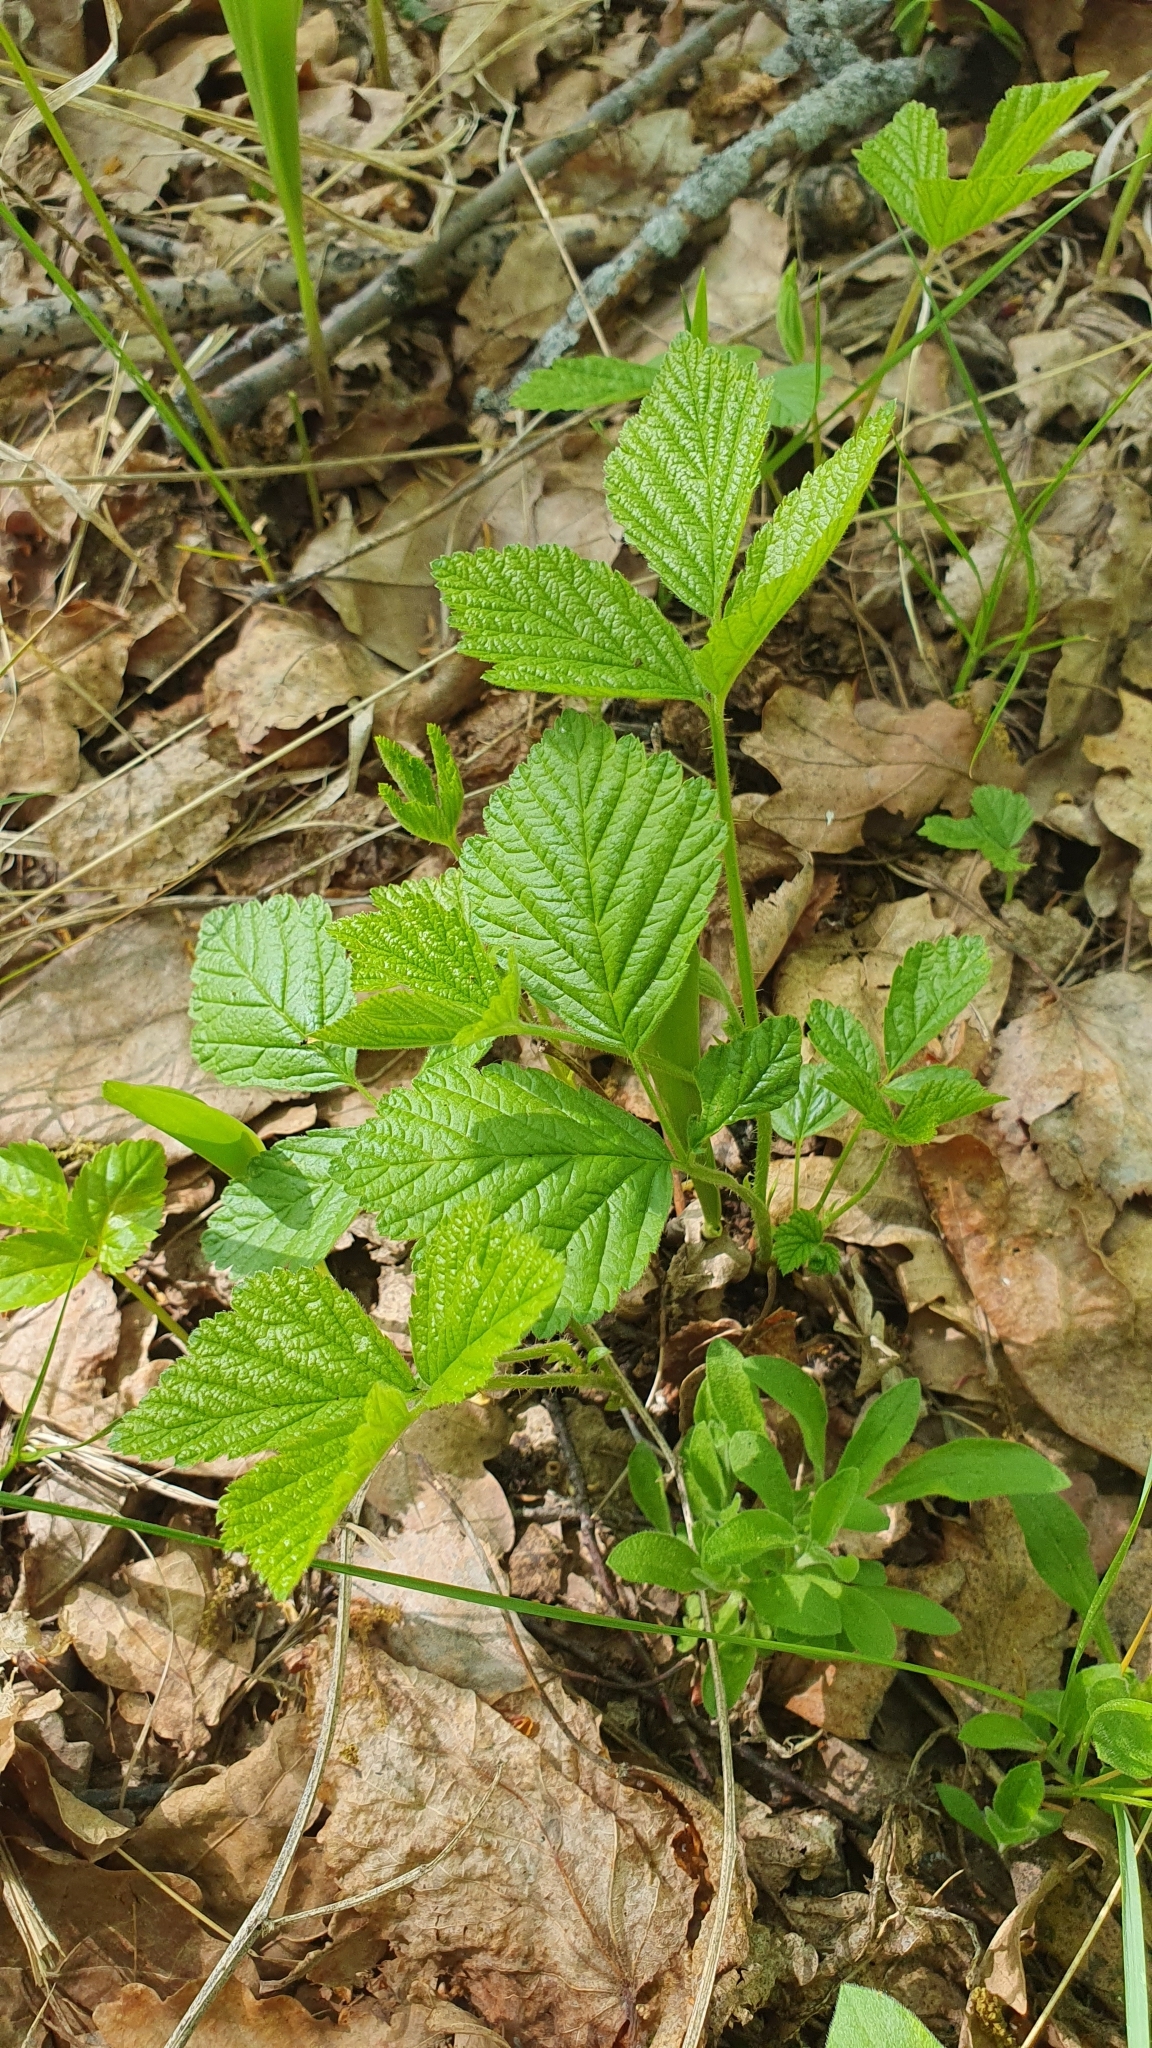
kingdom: Plantae
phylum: Tracheophyta
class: Magnoliopsida
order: Rosales
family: Rosaceae
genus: Rubus
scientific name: Rubus saxatilis
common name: Stone bramble
